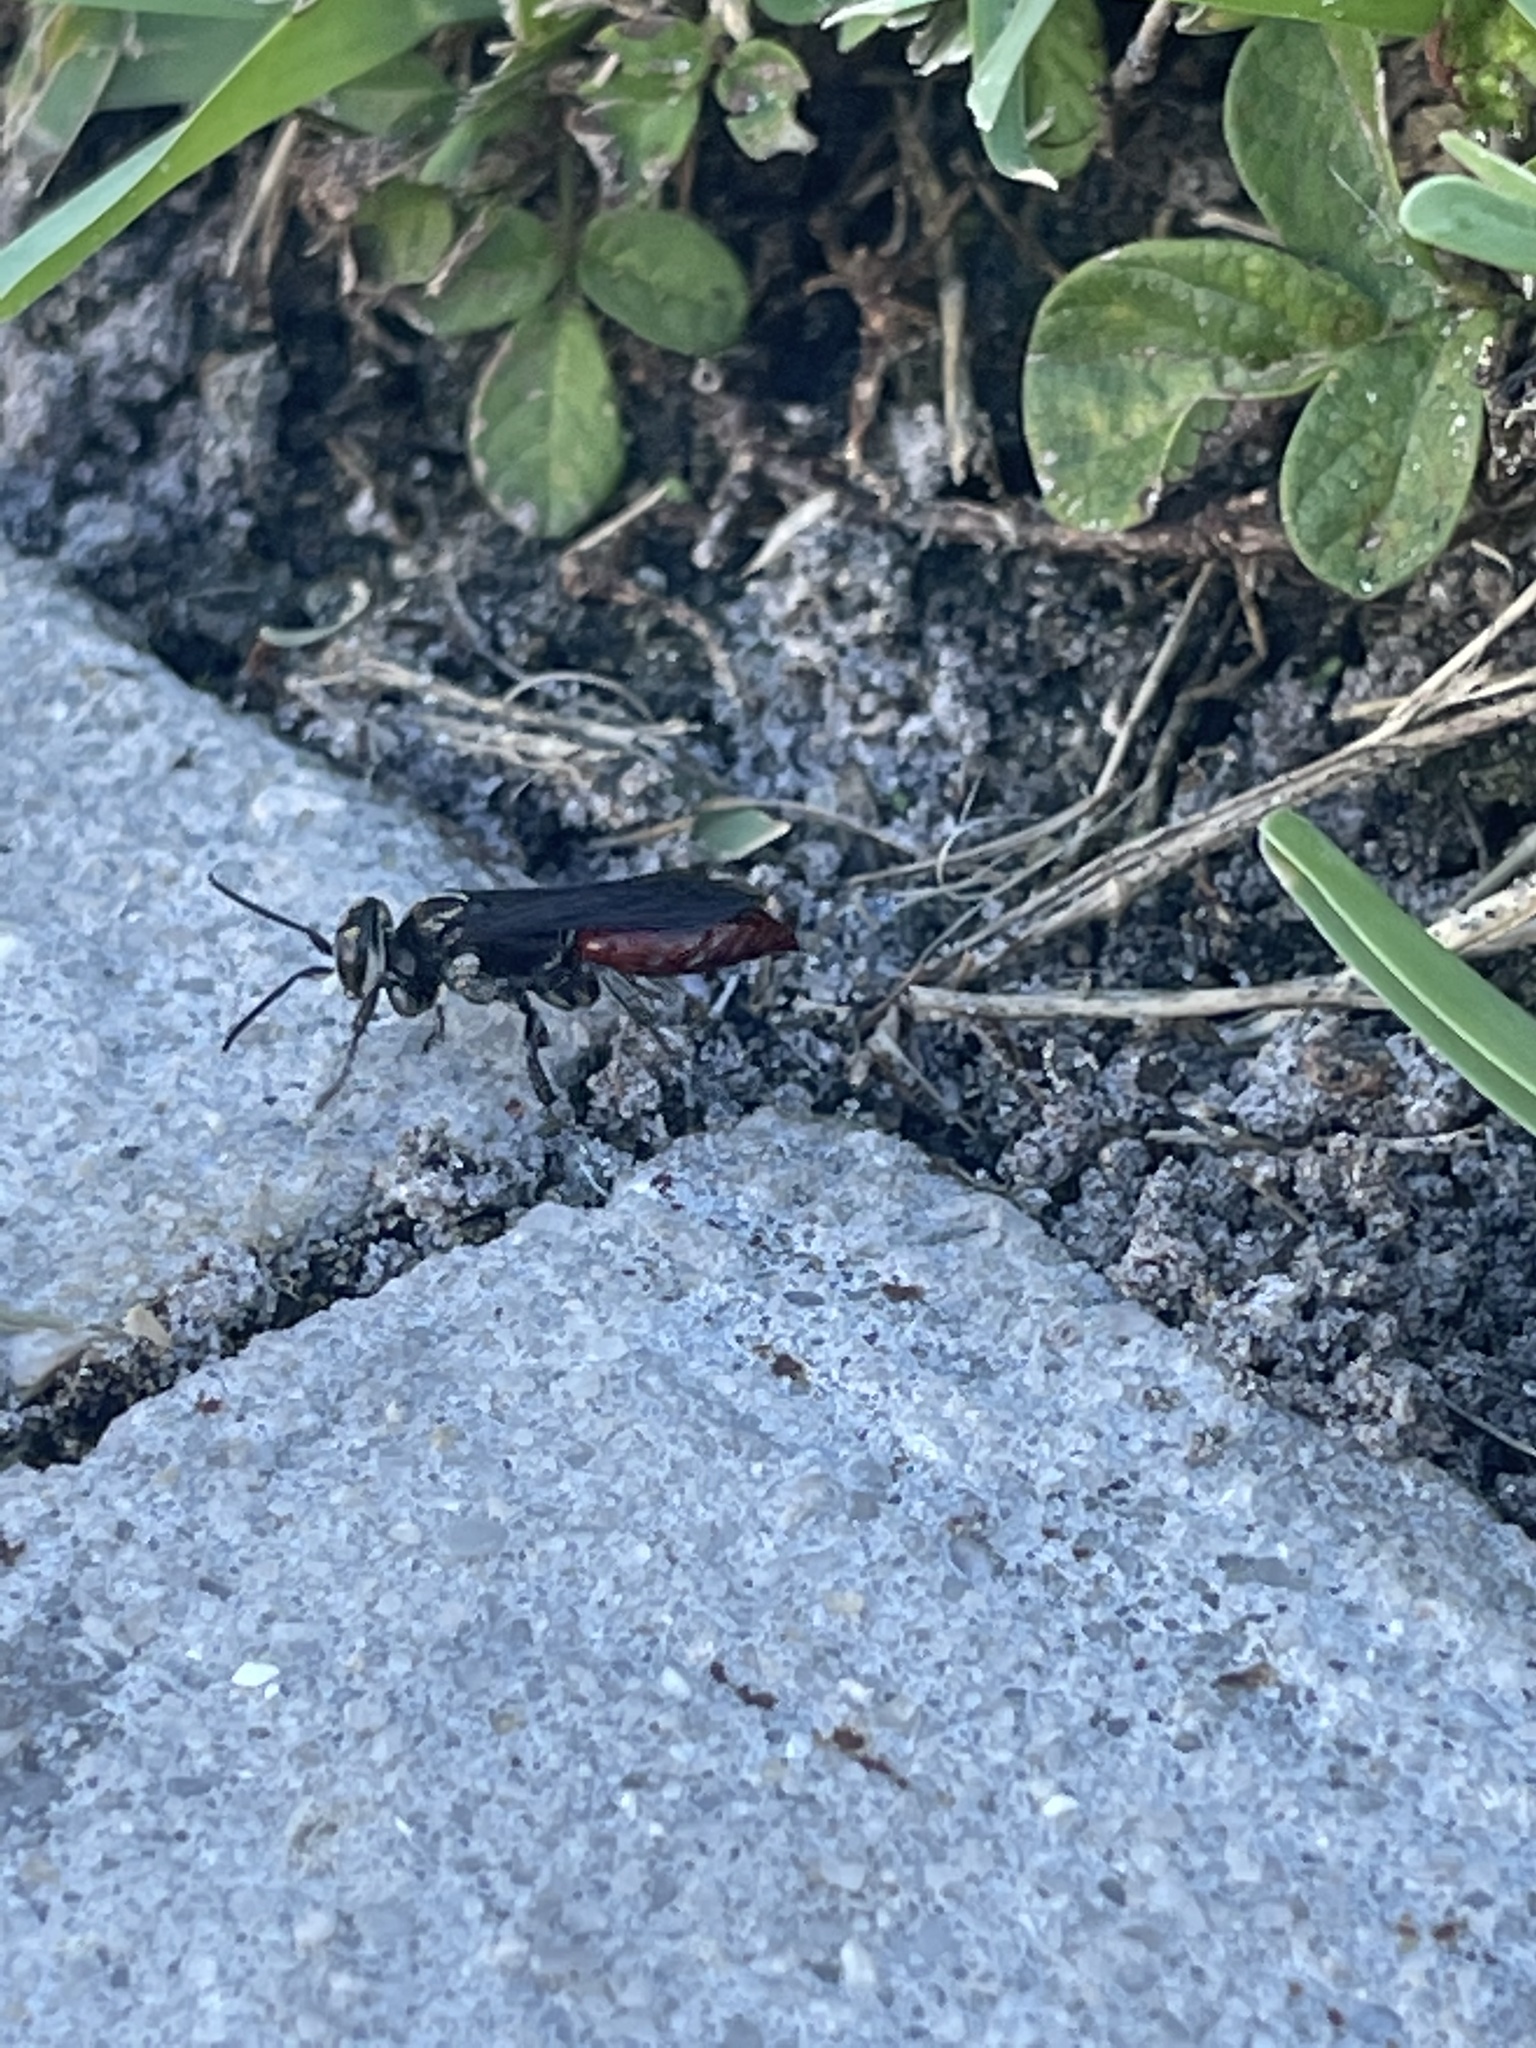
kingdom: Animalia
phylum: Arthropoda
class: Insecta
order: Hymenoptera
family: Crabronidae
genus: Larra
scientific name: Larra bicolor
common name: Wasp
